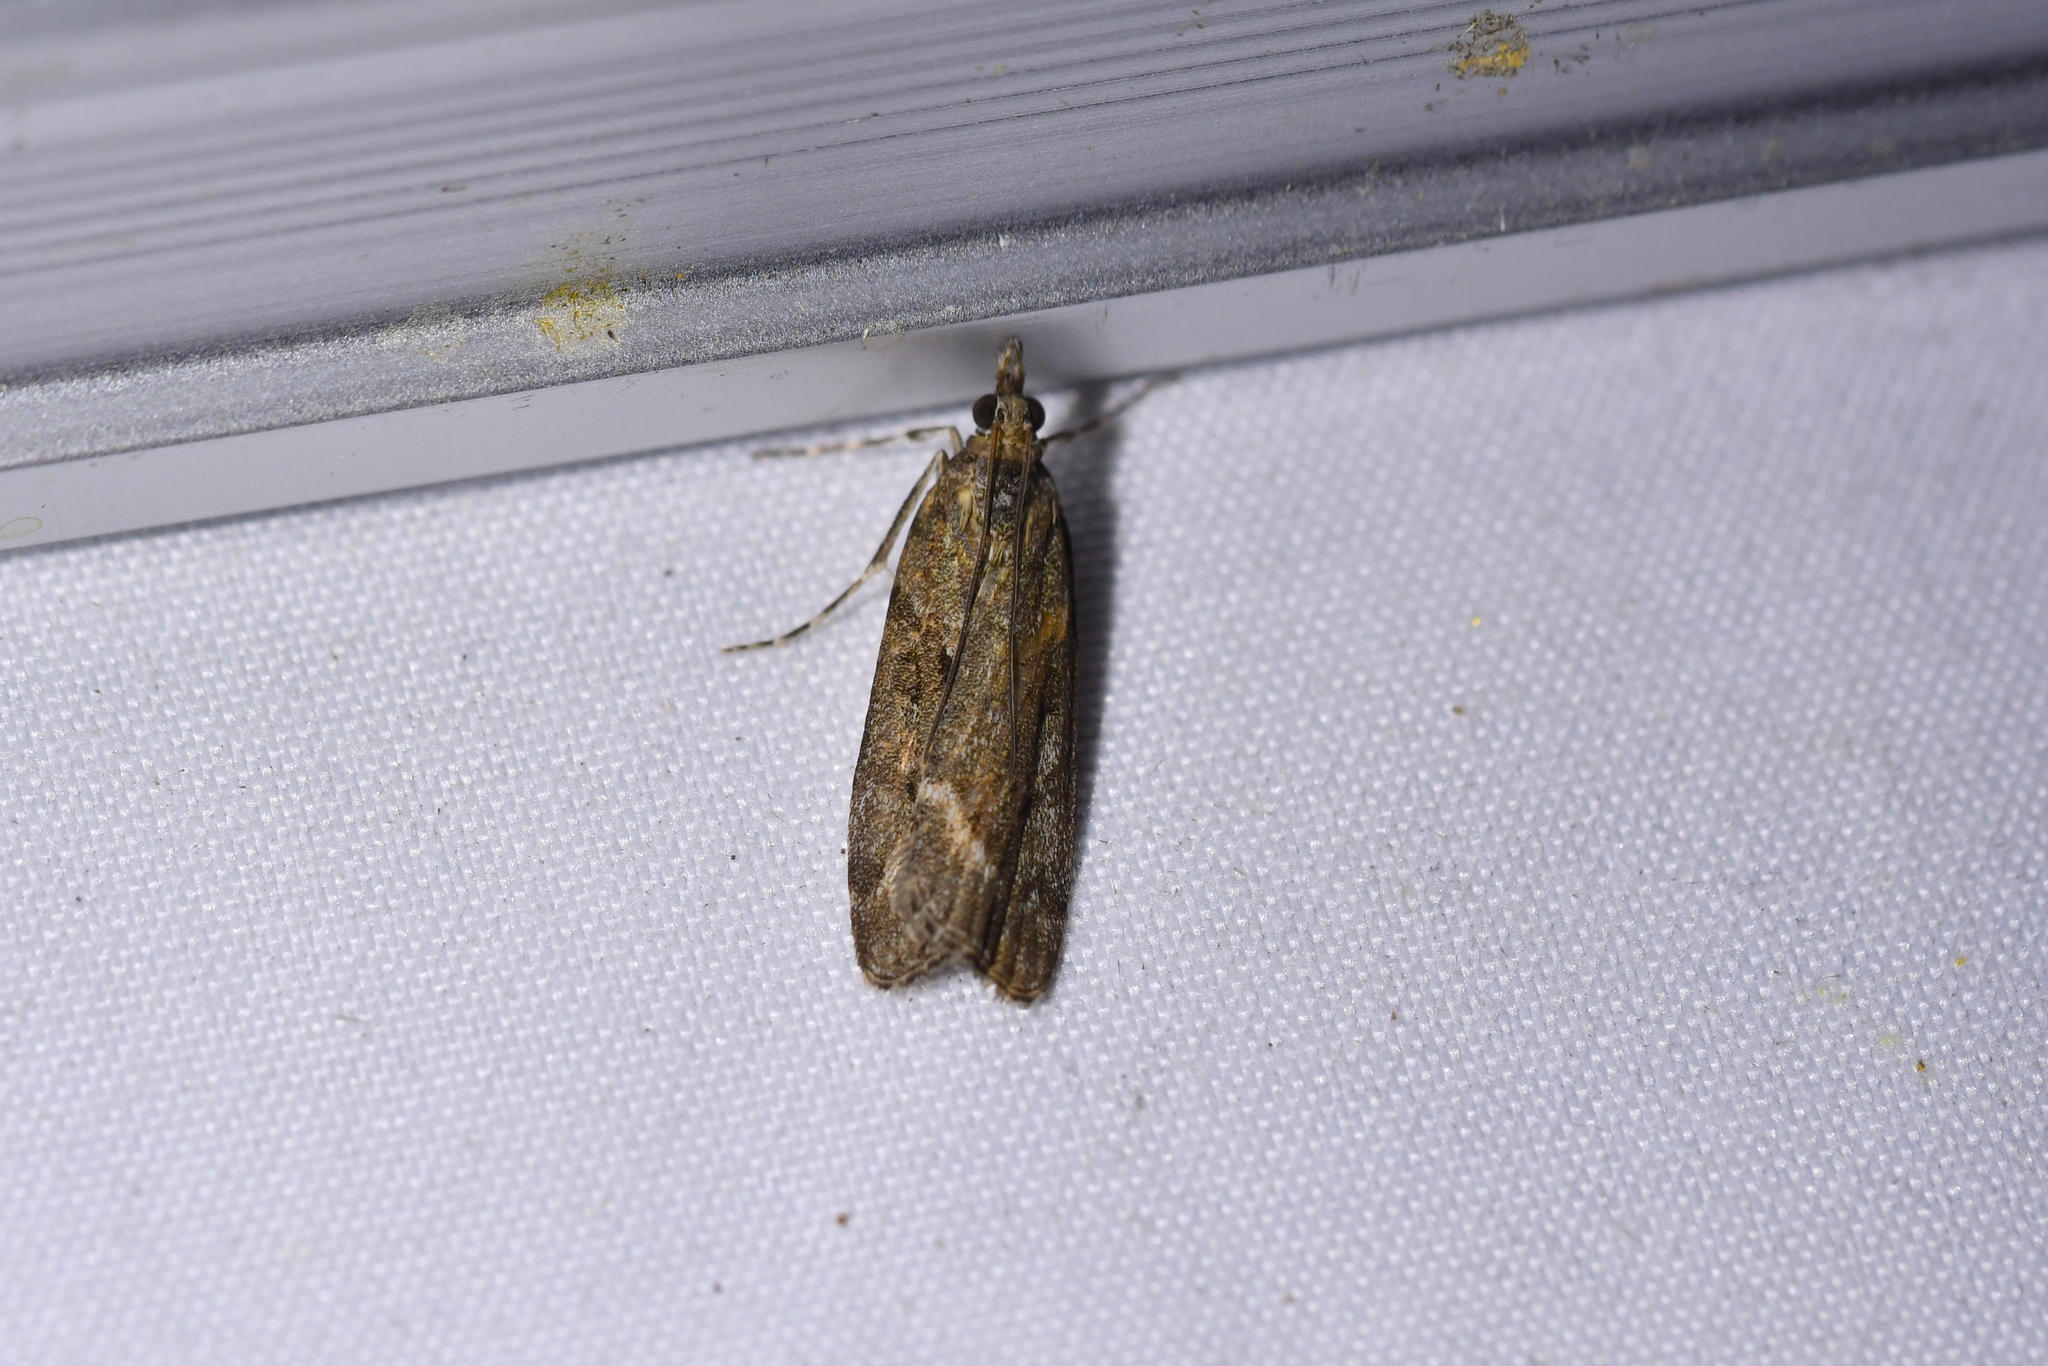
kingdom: Animalia
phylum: Arthropoda
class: Insecta
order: Lepidoptera
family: Crambidae
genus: Eudonia
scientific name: Eudonia submarginalis
